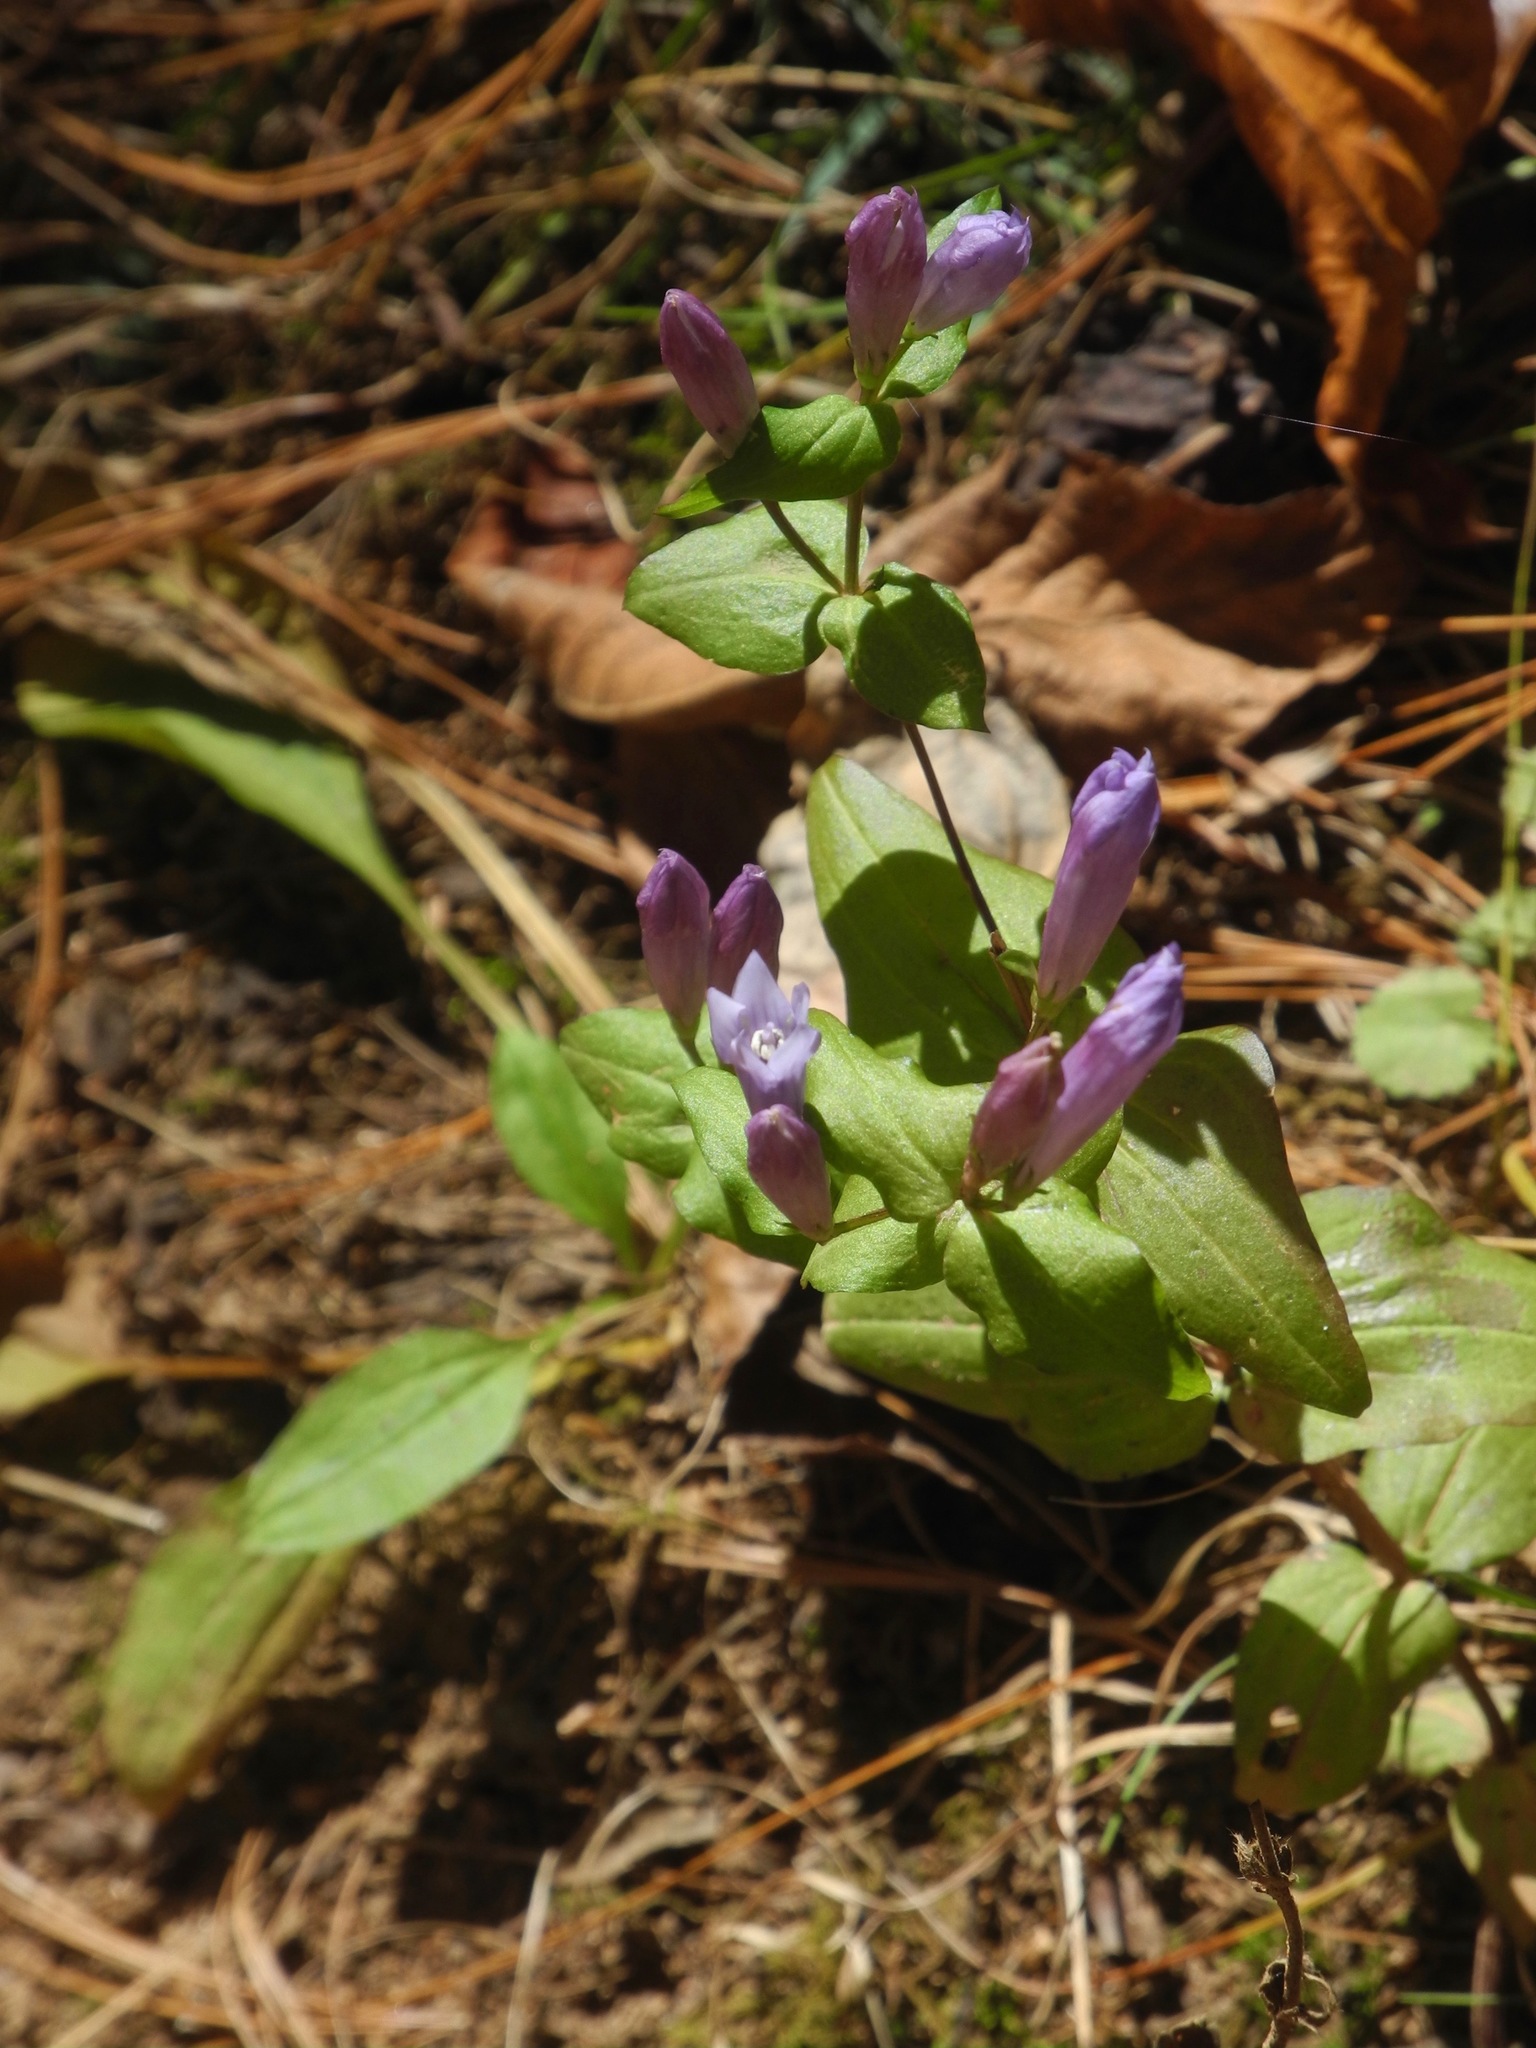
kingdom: Plantae
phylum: Tracheophyta
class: Magnoliopsida
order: Gentianales
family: Gentianaceae
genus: Gentianella
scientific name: Gentianella quinquefolia
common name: Agueweed
